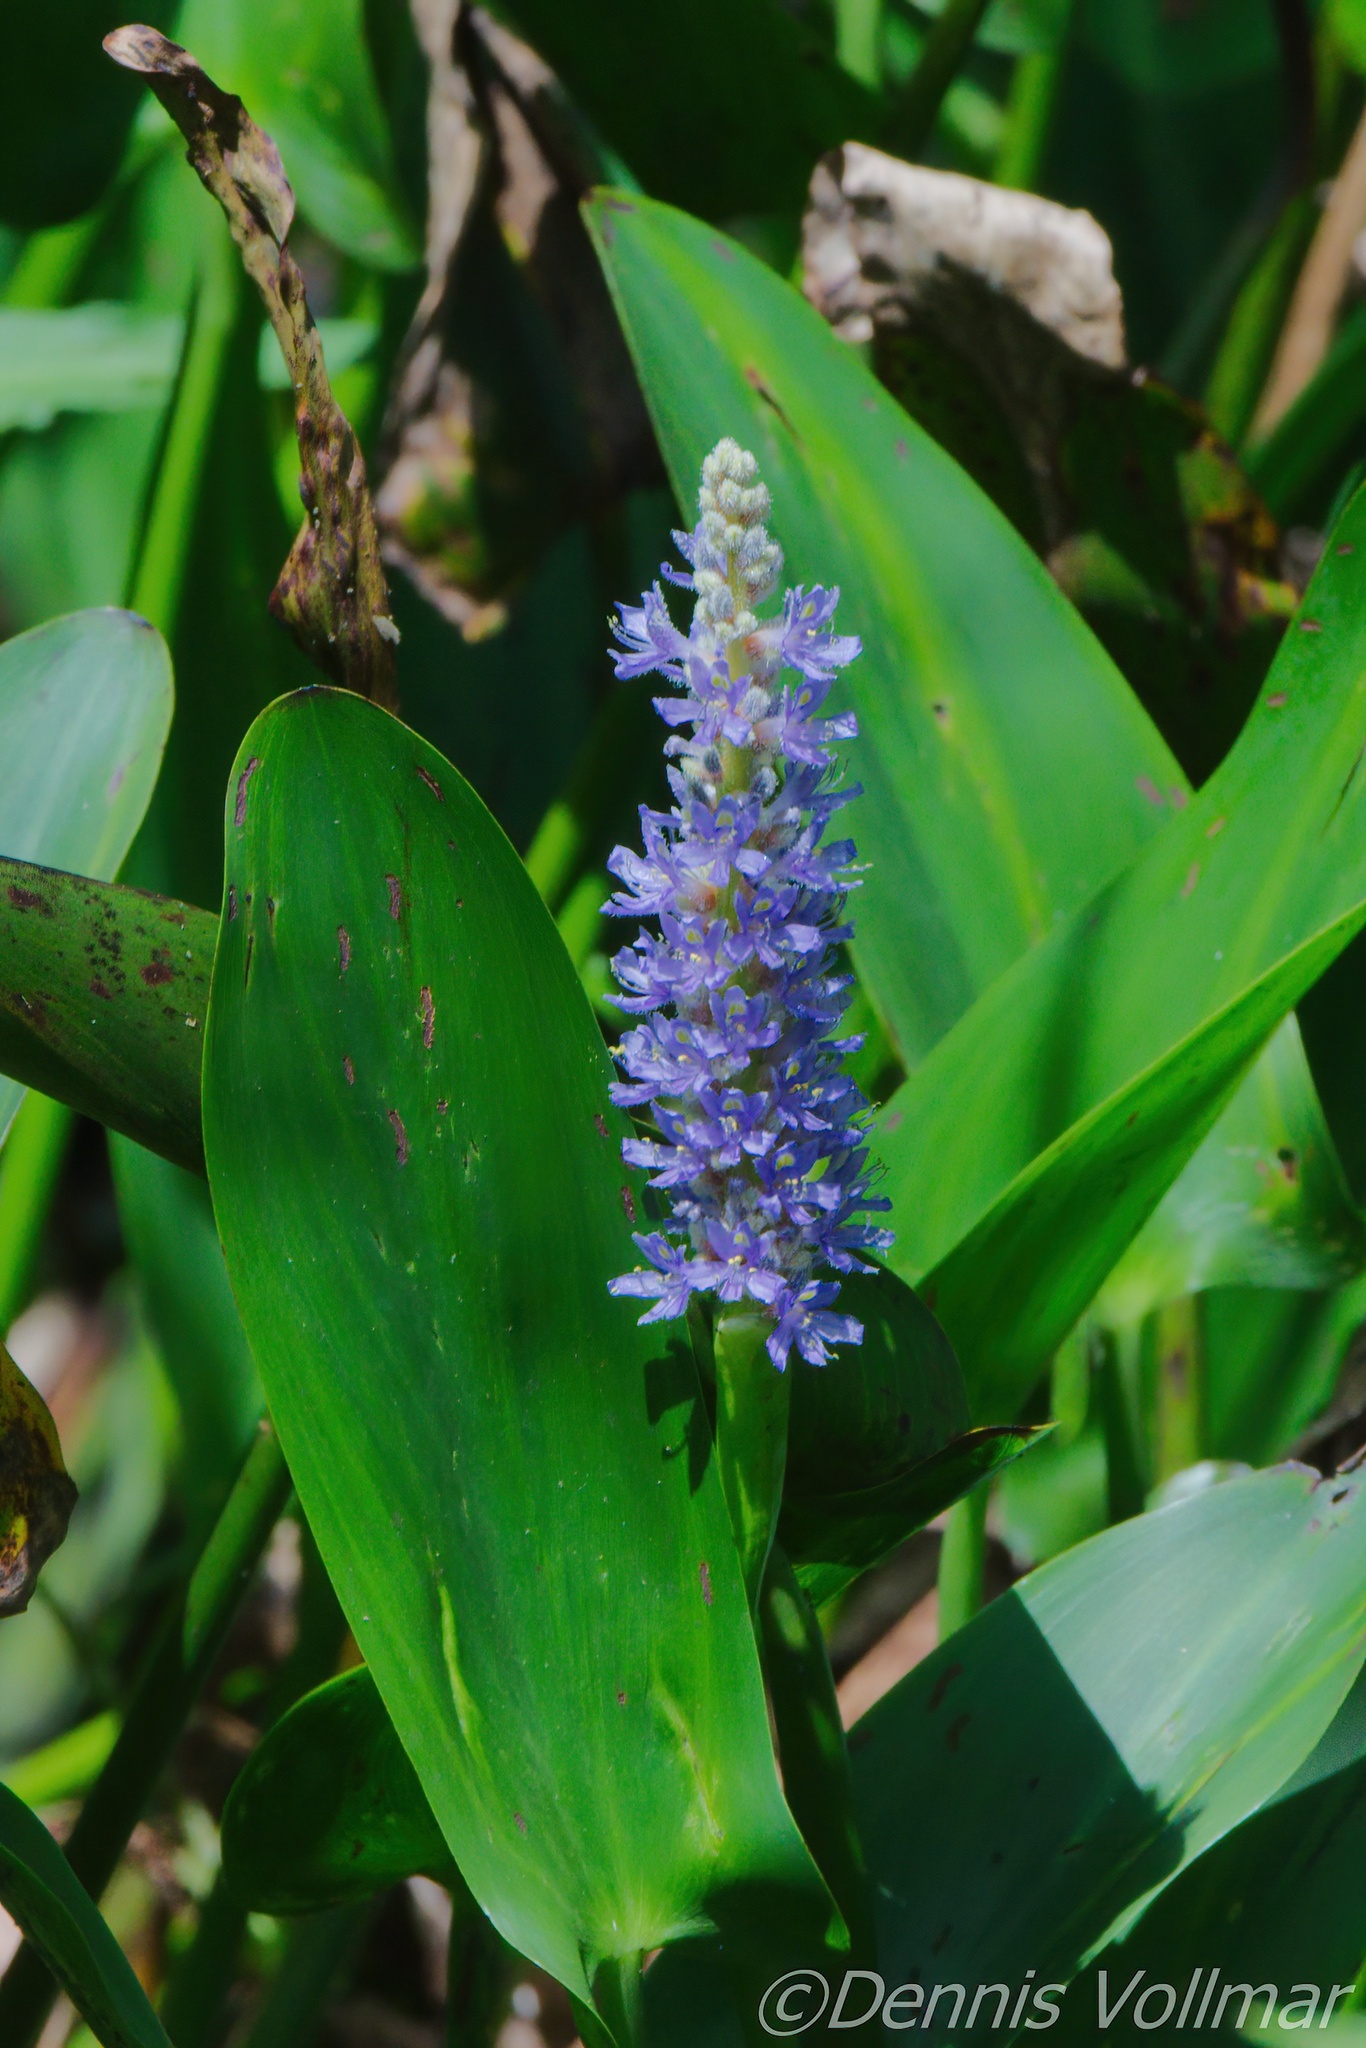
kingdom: Plantae
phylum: Tracheophyta
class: Liliopsida
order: Commelinales
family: Pontederiaceae
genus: Pontederia
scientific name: Pontederia cordata
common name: Pickerelweed
